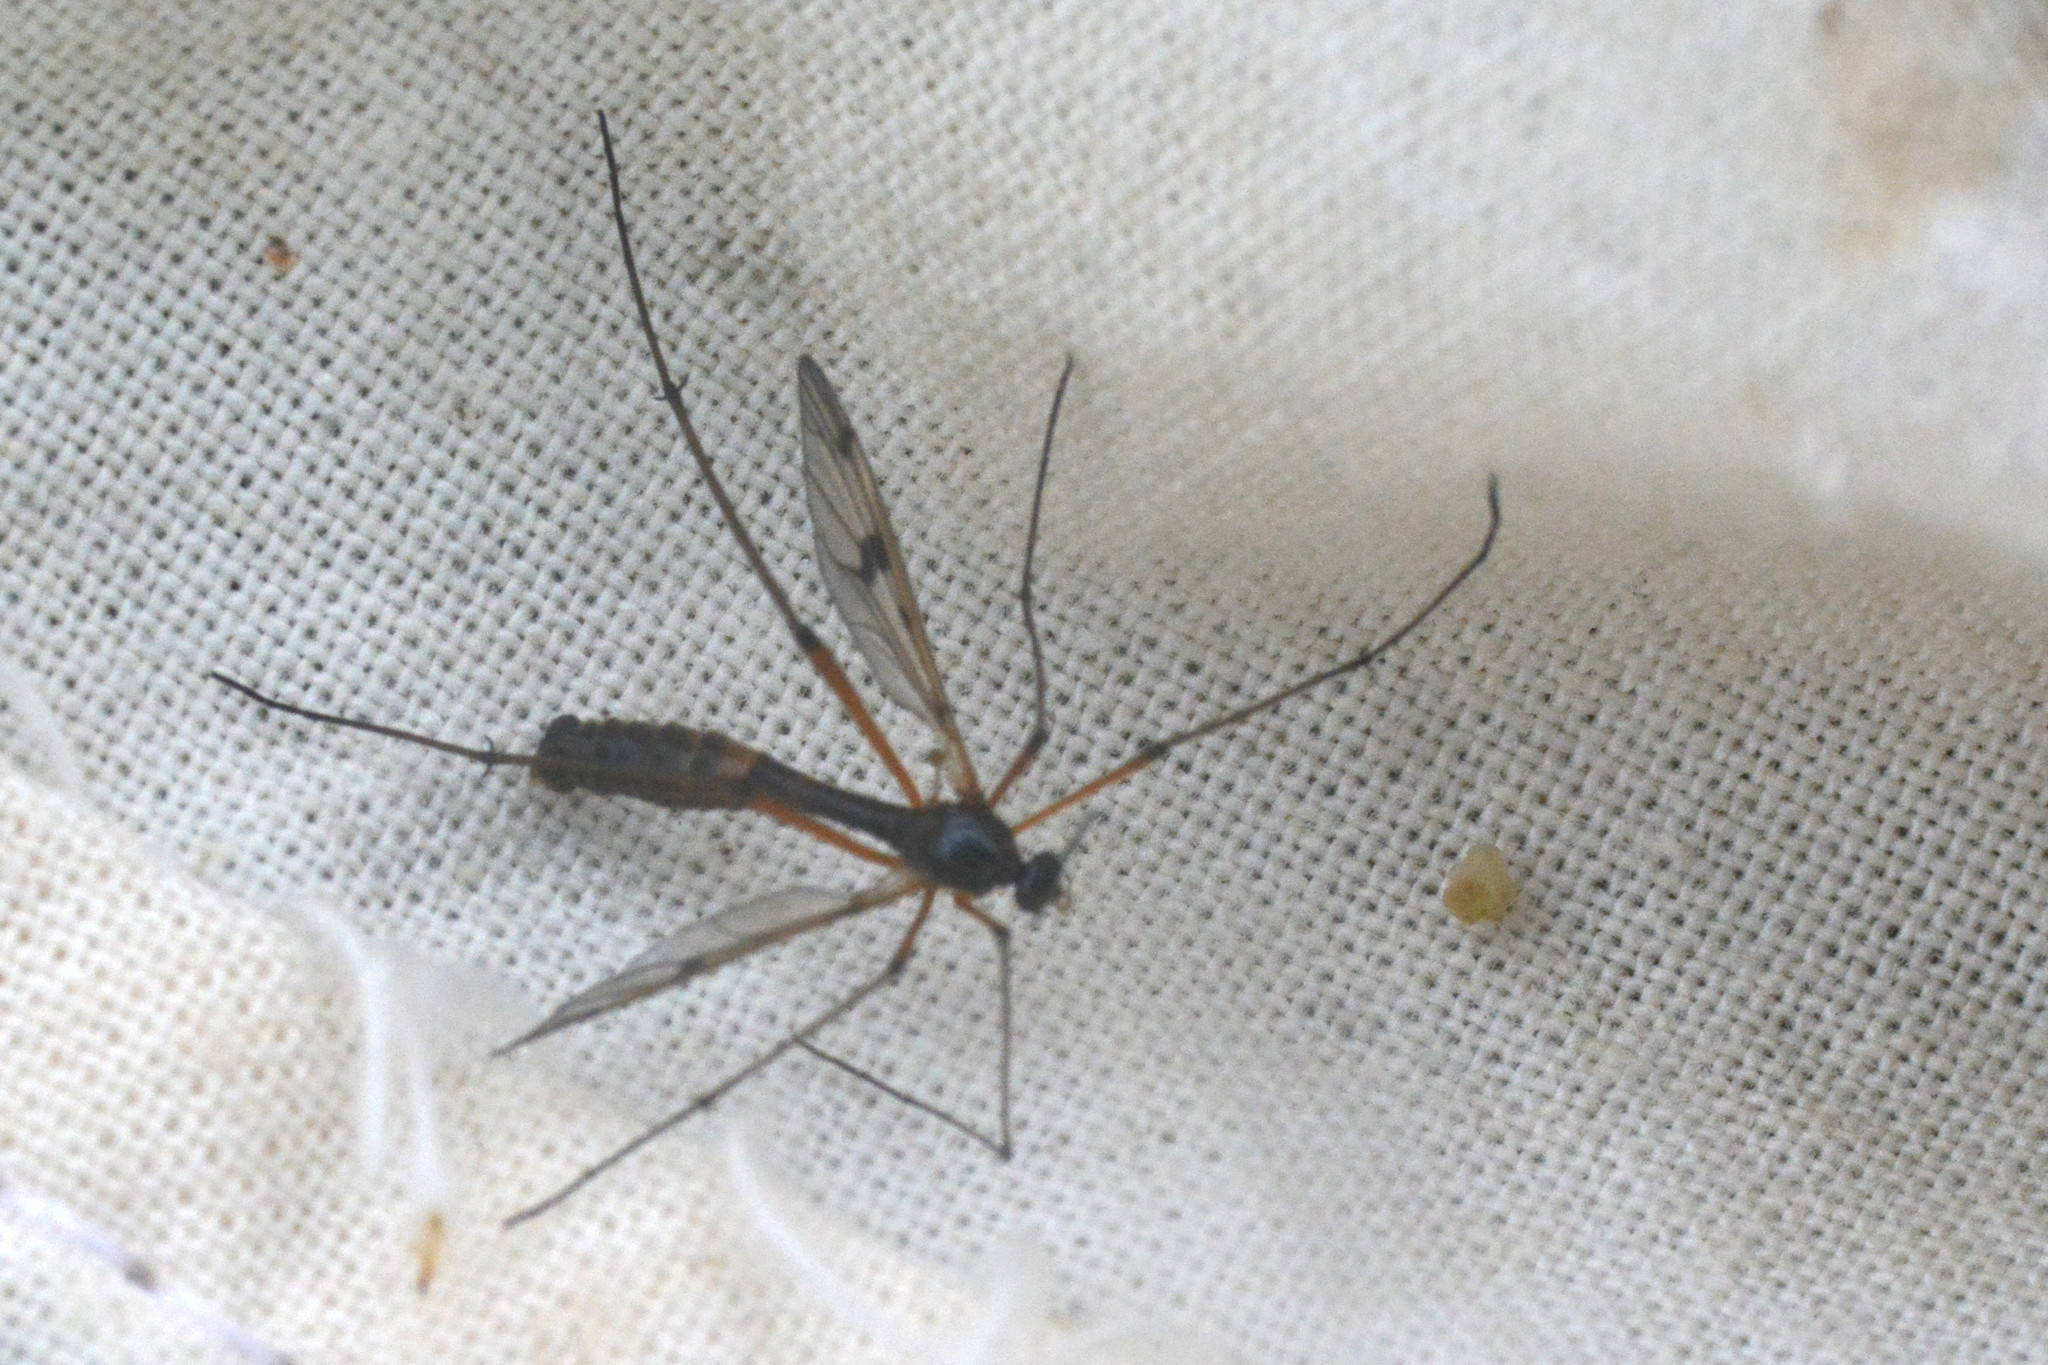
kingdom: Animalia
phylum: Arthropoda
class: Insecta
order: Diptera
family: Ptychopteridae
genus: Ptychoptera
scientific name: Ptychoptera contaminata
